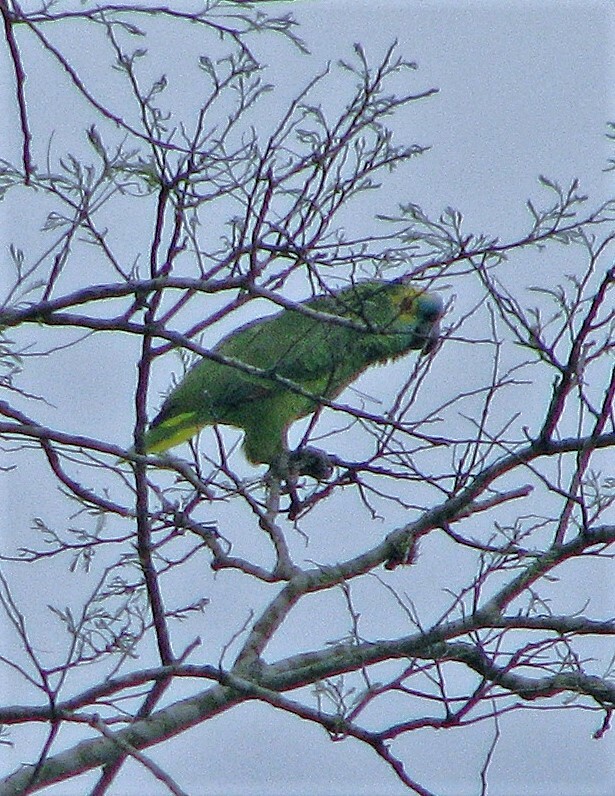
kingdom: Animalia
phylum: Chordata
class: Aves
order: Psittaciformes
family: Psittacidae
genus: Amazona
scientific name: Amazona aestiva
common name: Turquoise-fronted amazon
